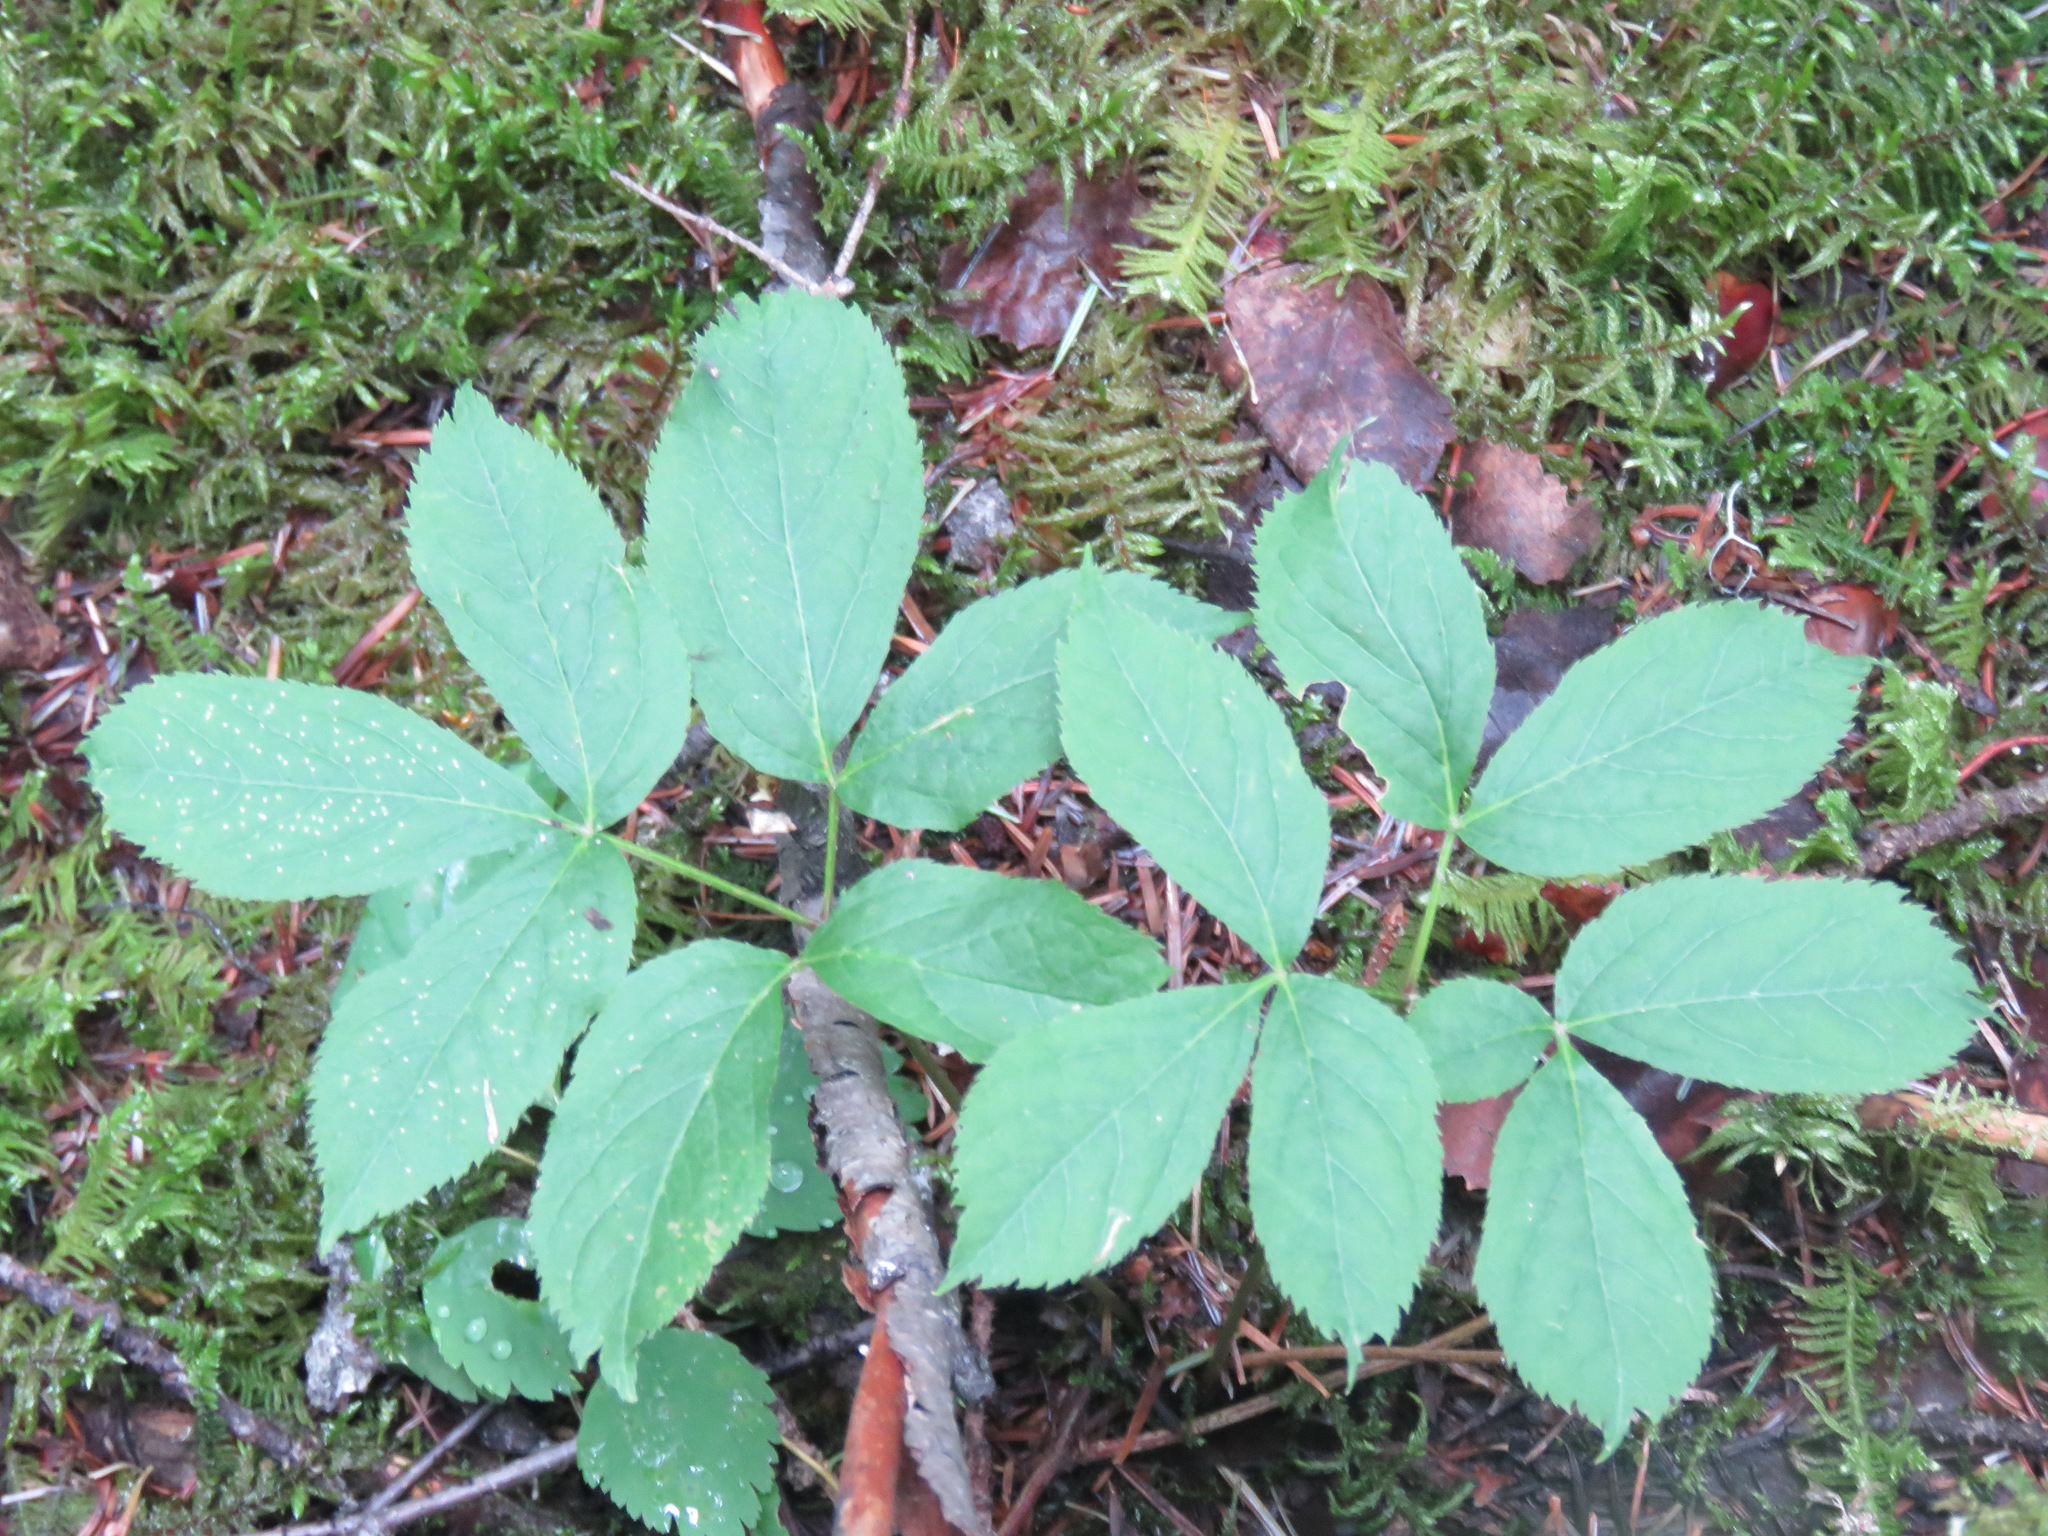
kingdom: Plantae
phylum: Tracheophyta
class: Magnoliopsida
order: Apiales
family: Araliaceae
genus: Aralia
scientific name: Aralia nudicaulis
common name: Wild sarsaparilla
